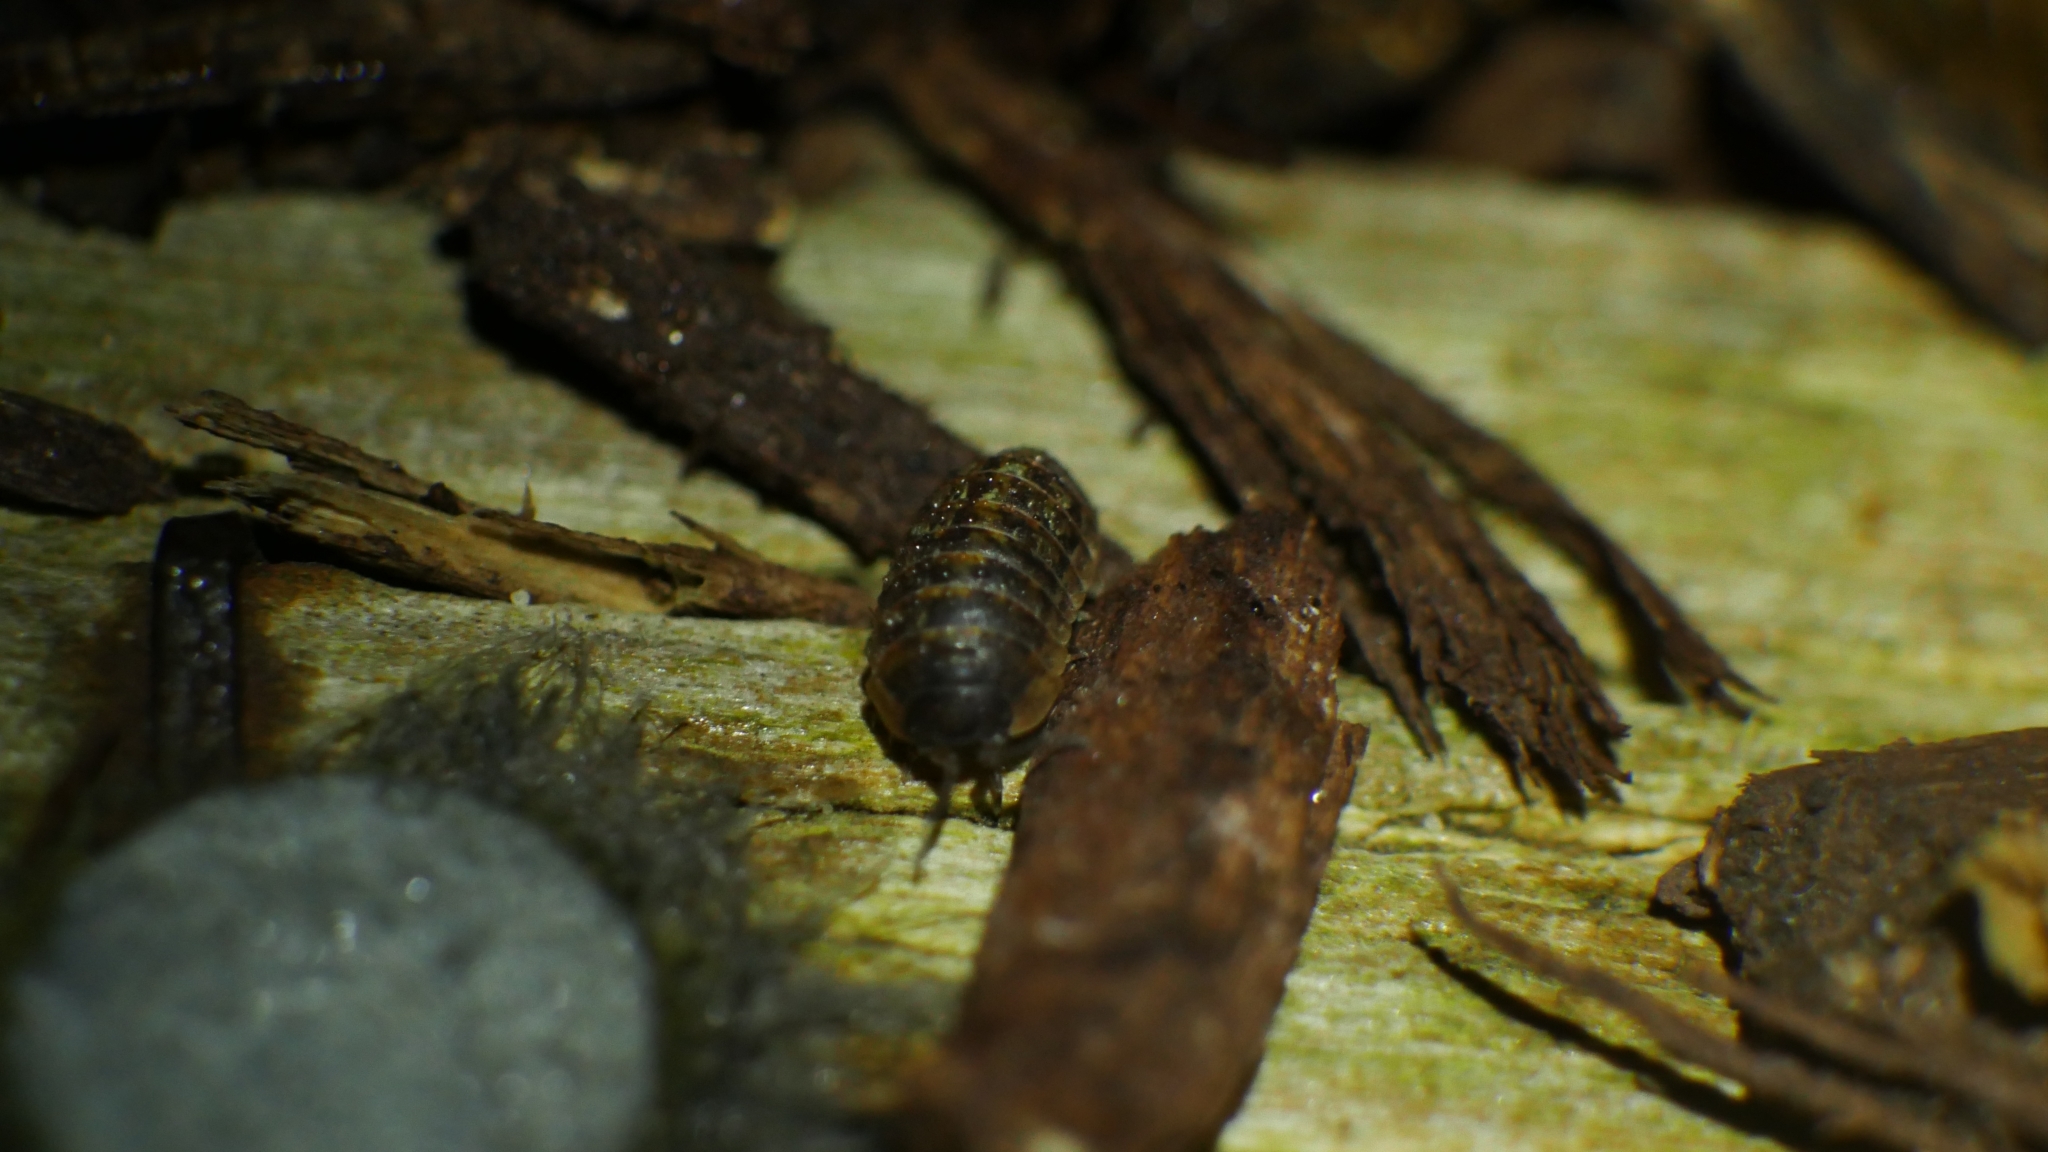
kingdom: Animalia
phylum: Arthropoda
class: Malacostraca
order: Isopoda
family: Armadillidiidae
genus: Armadillidium
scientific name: Armadillidium vulgare
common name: Common pill woodlouse
